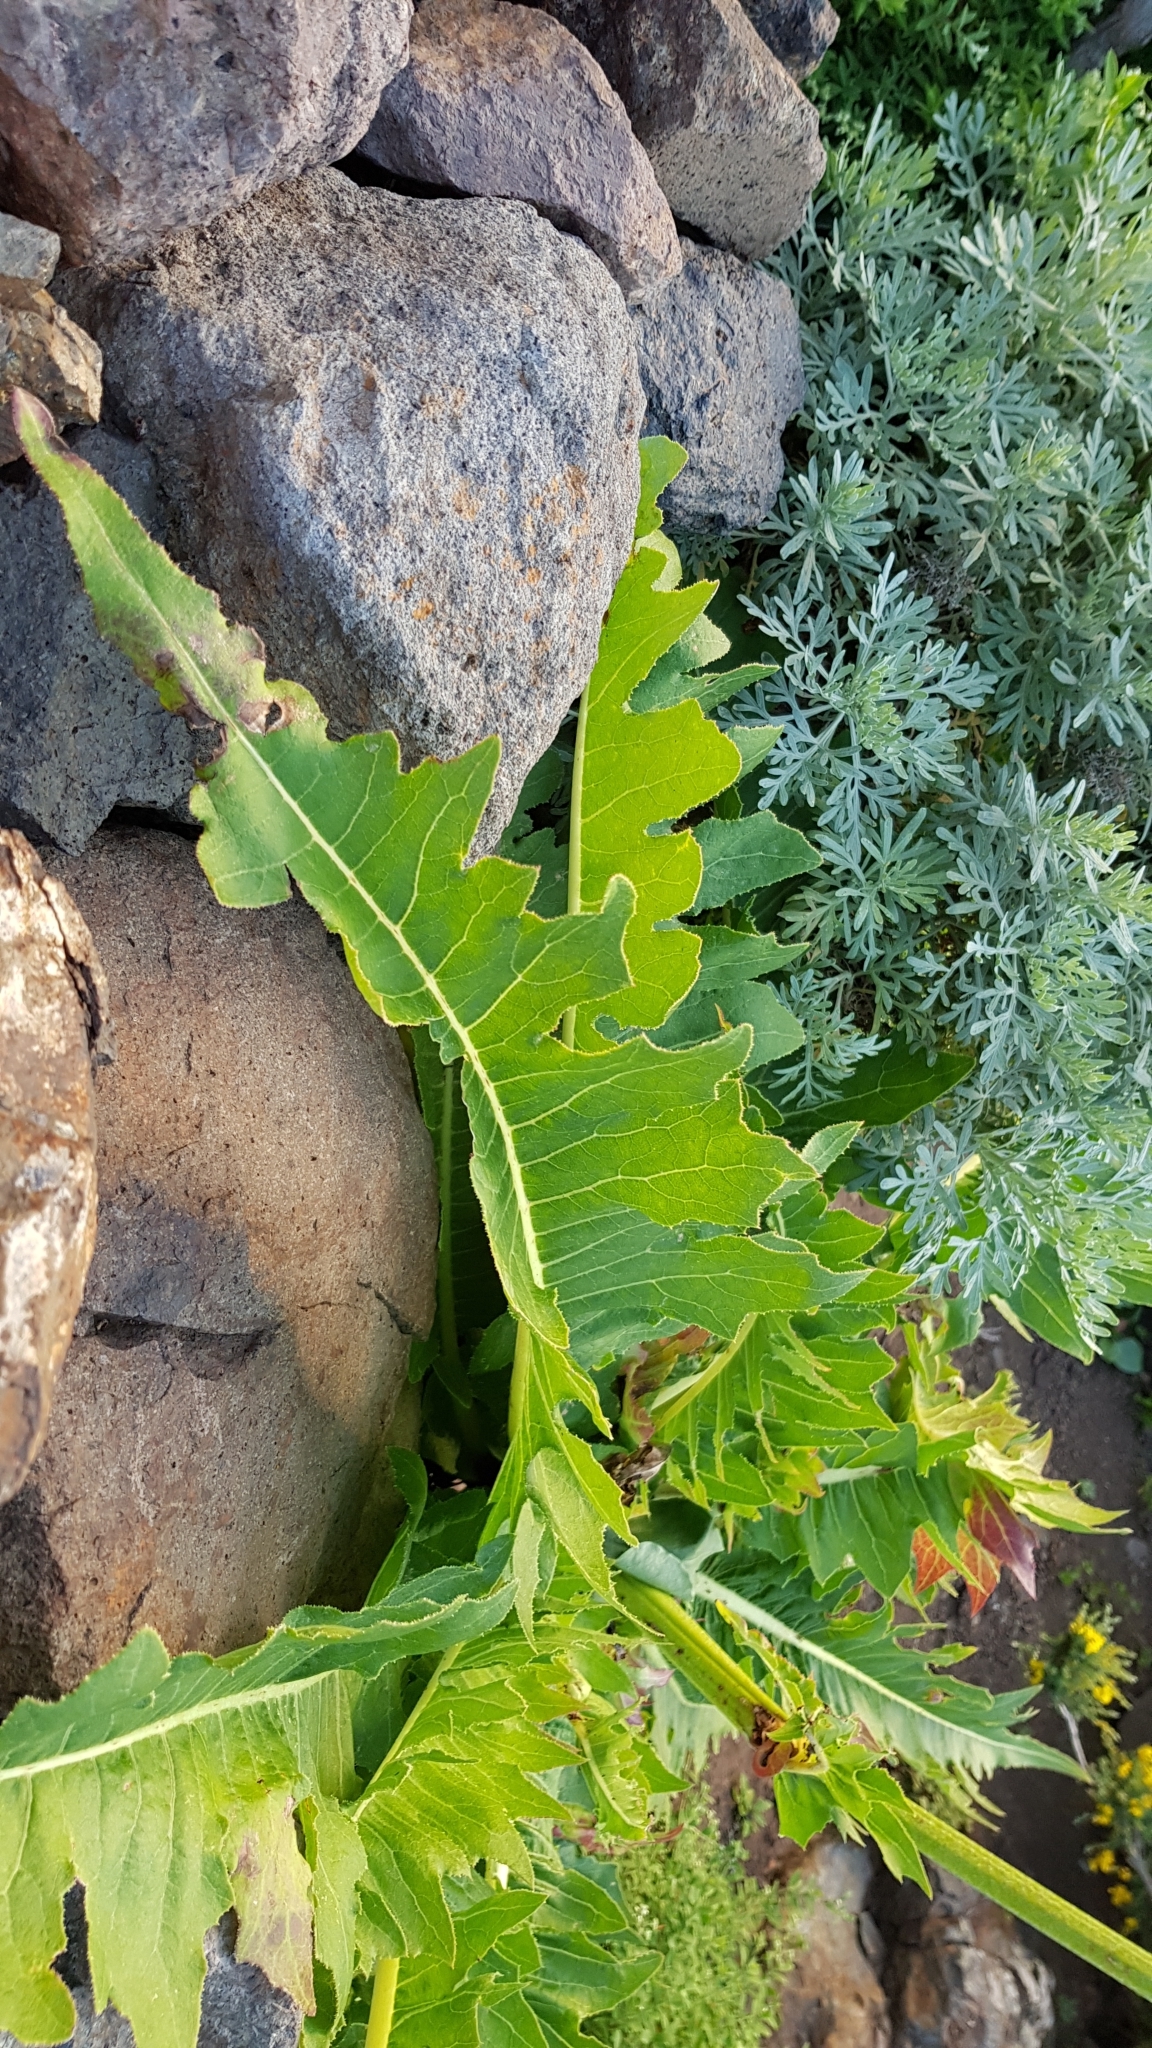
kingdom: Plantae
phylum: Tracheophyta
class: Magnoliopsida
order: Asterales
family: Asteraceae
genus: Sonchus
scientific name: Sonchus acaulis
